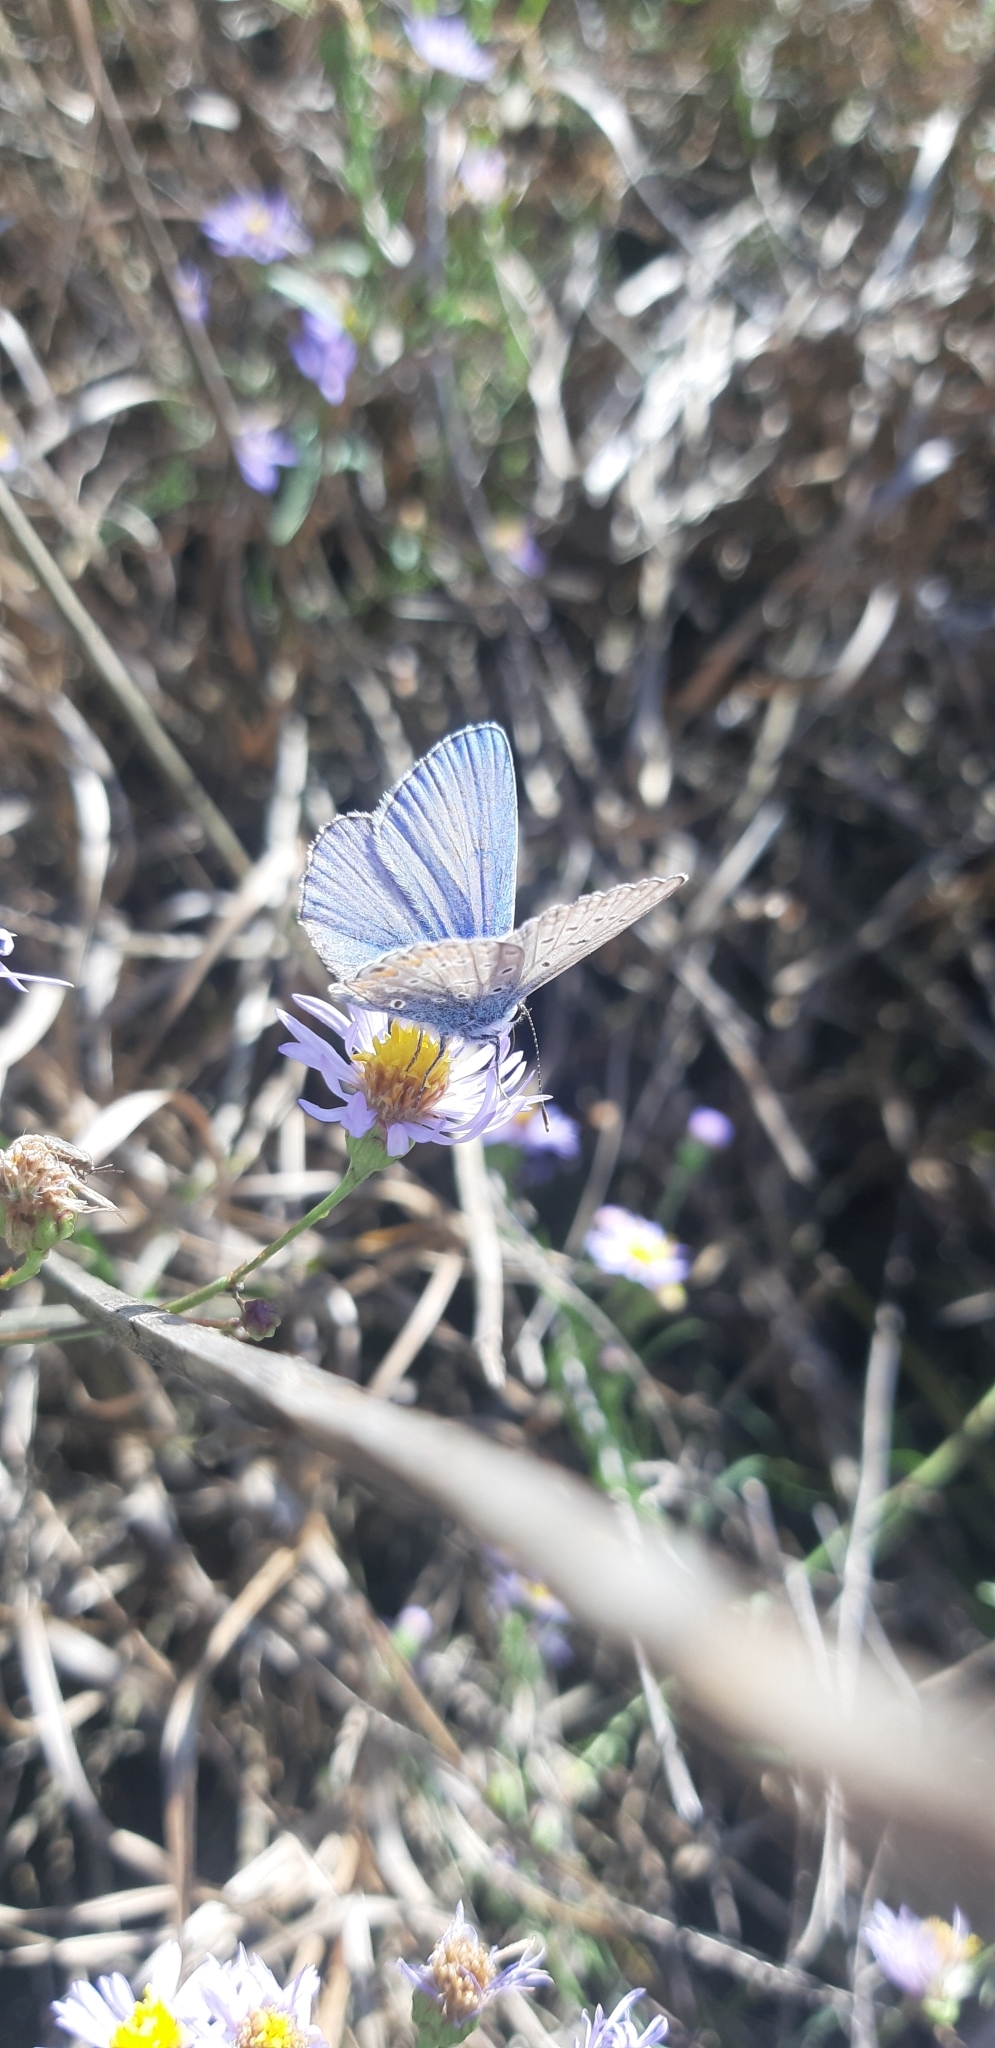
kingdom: Animalia
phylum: Arthropoda
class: Insecta
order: Lepidoptera
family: Lycaenidae
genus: Polyommatus
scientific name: Polyommatus icarus
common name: Common blue
